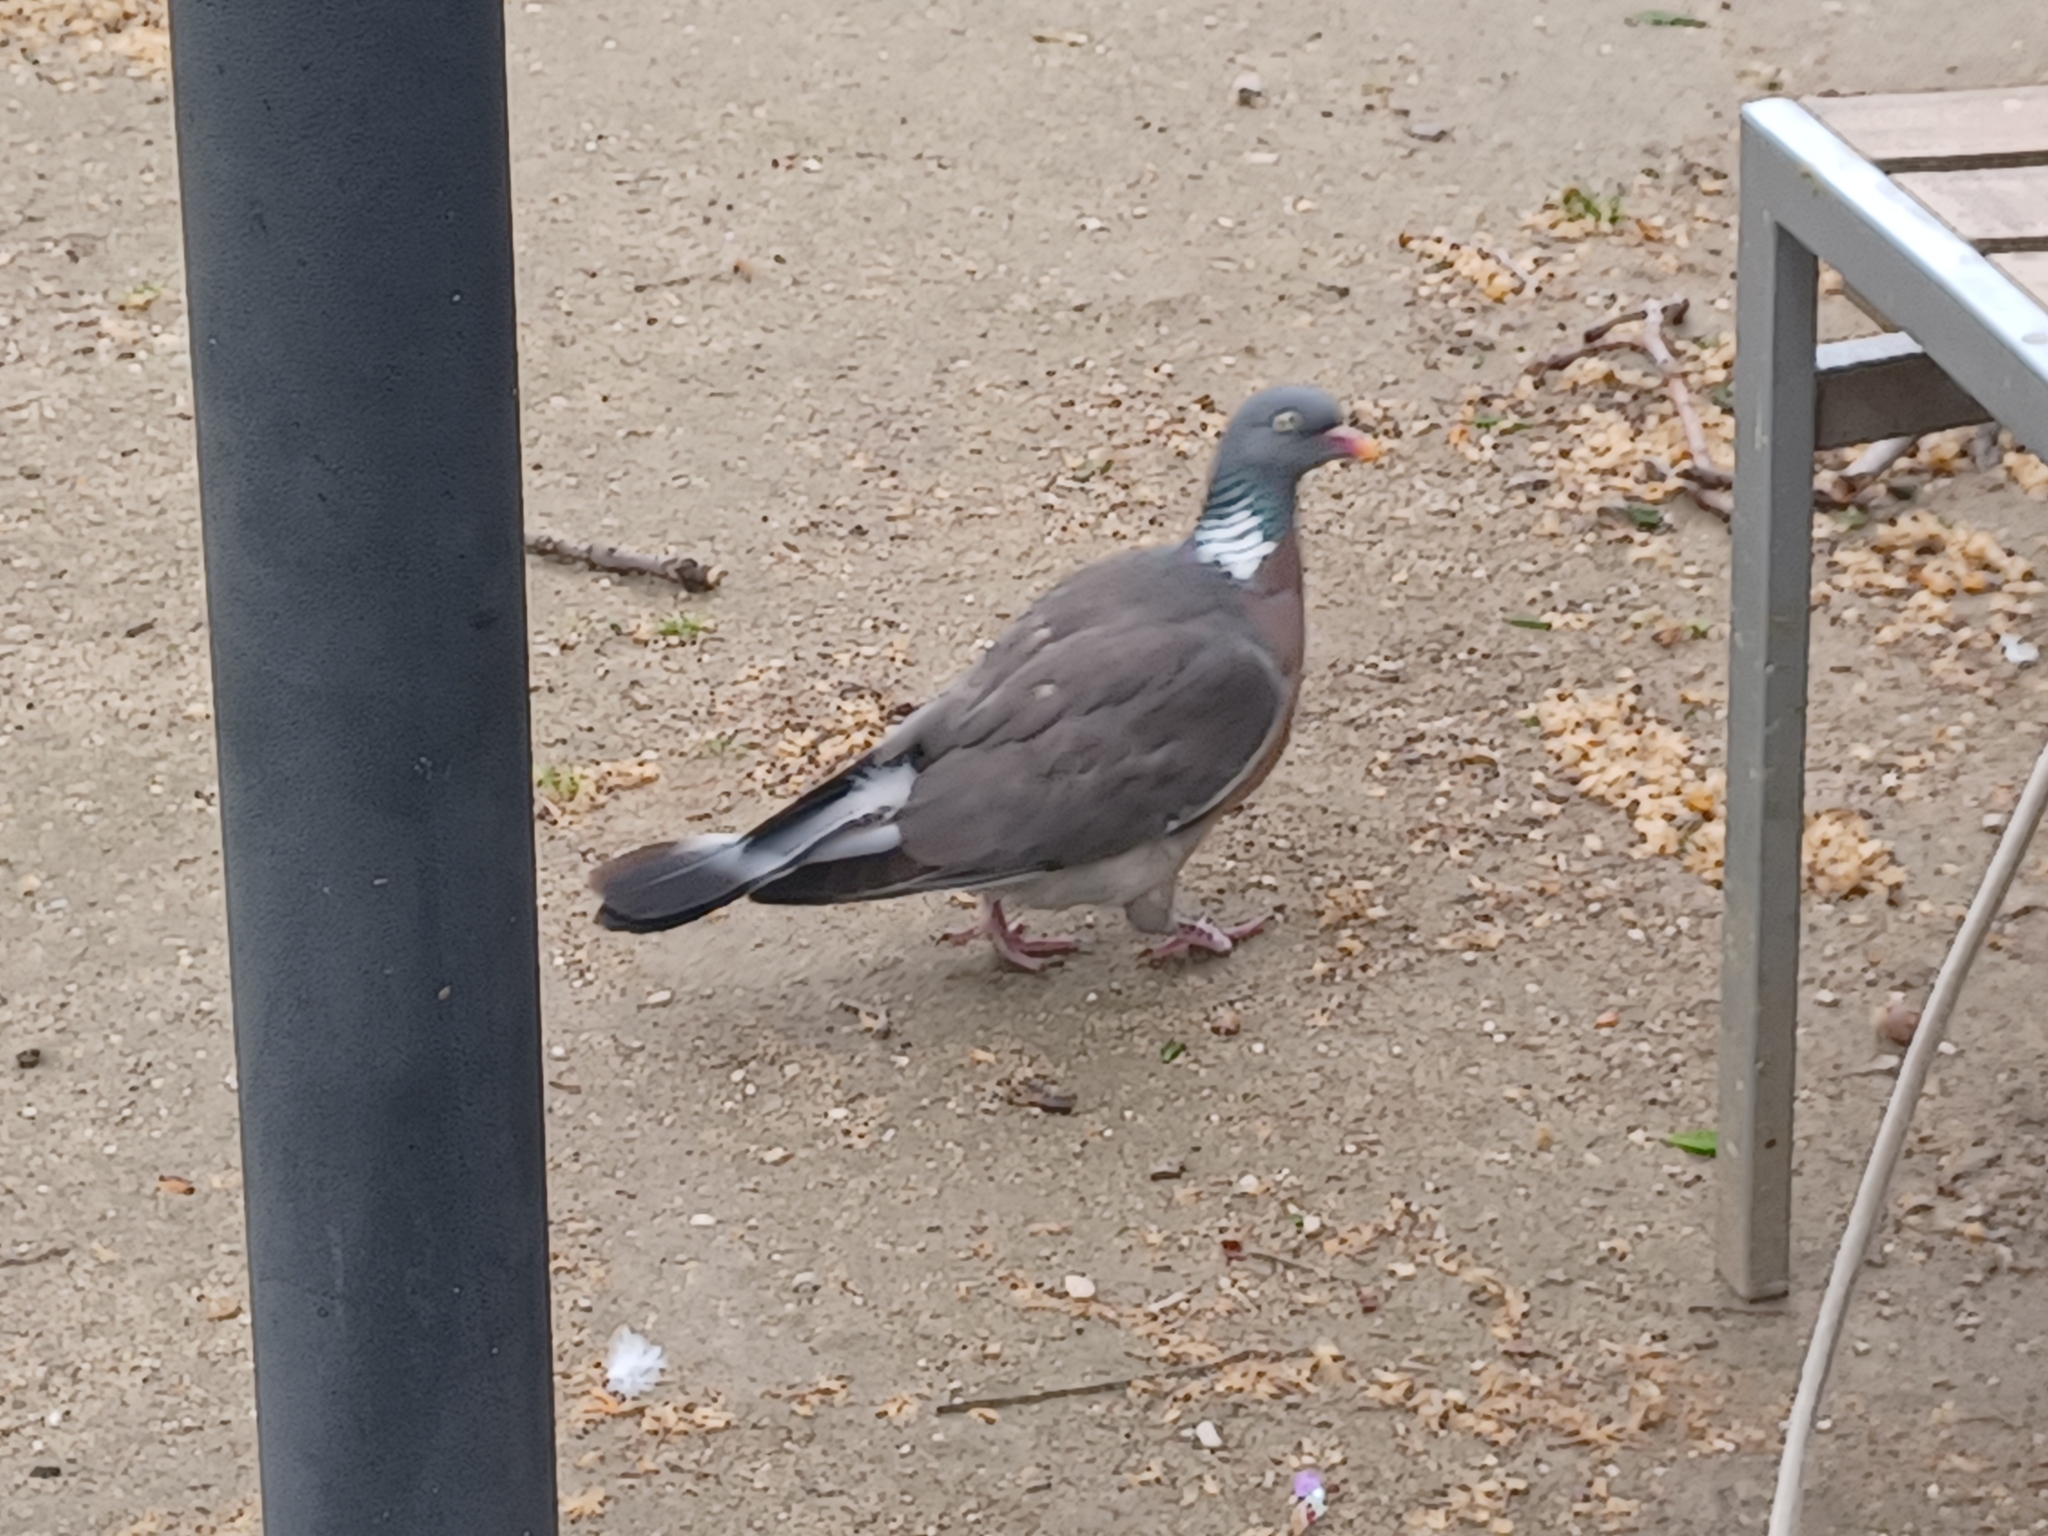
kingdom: Animalia
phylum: Chordata
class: Aves
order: Columbiformes
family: Columbidae
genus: Columba
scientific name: Columba palumbus
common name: Common wood pigeon
